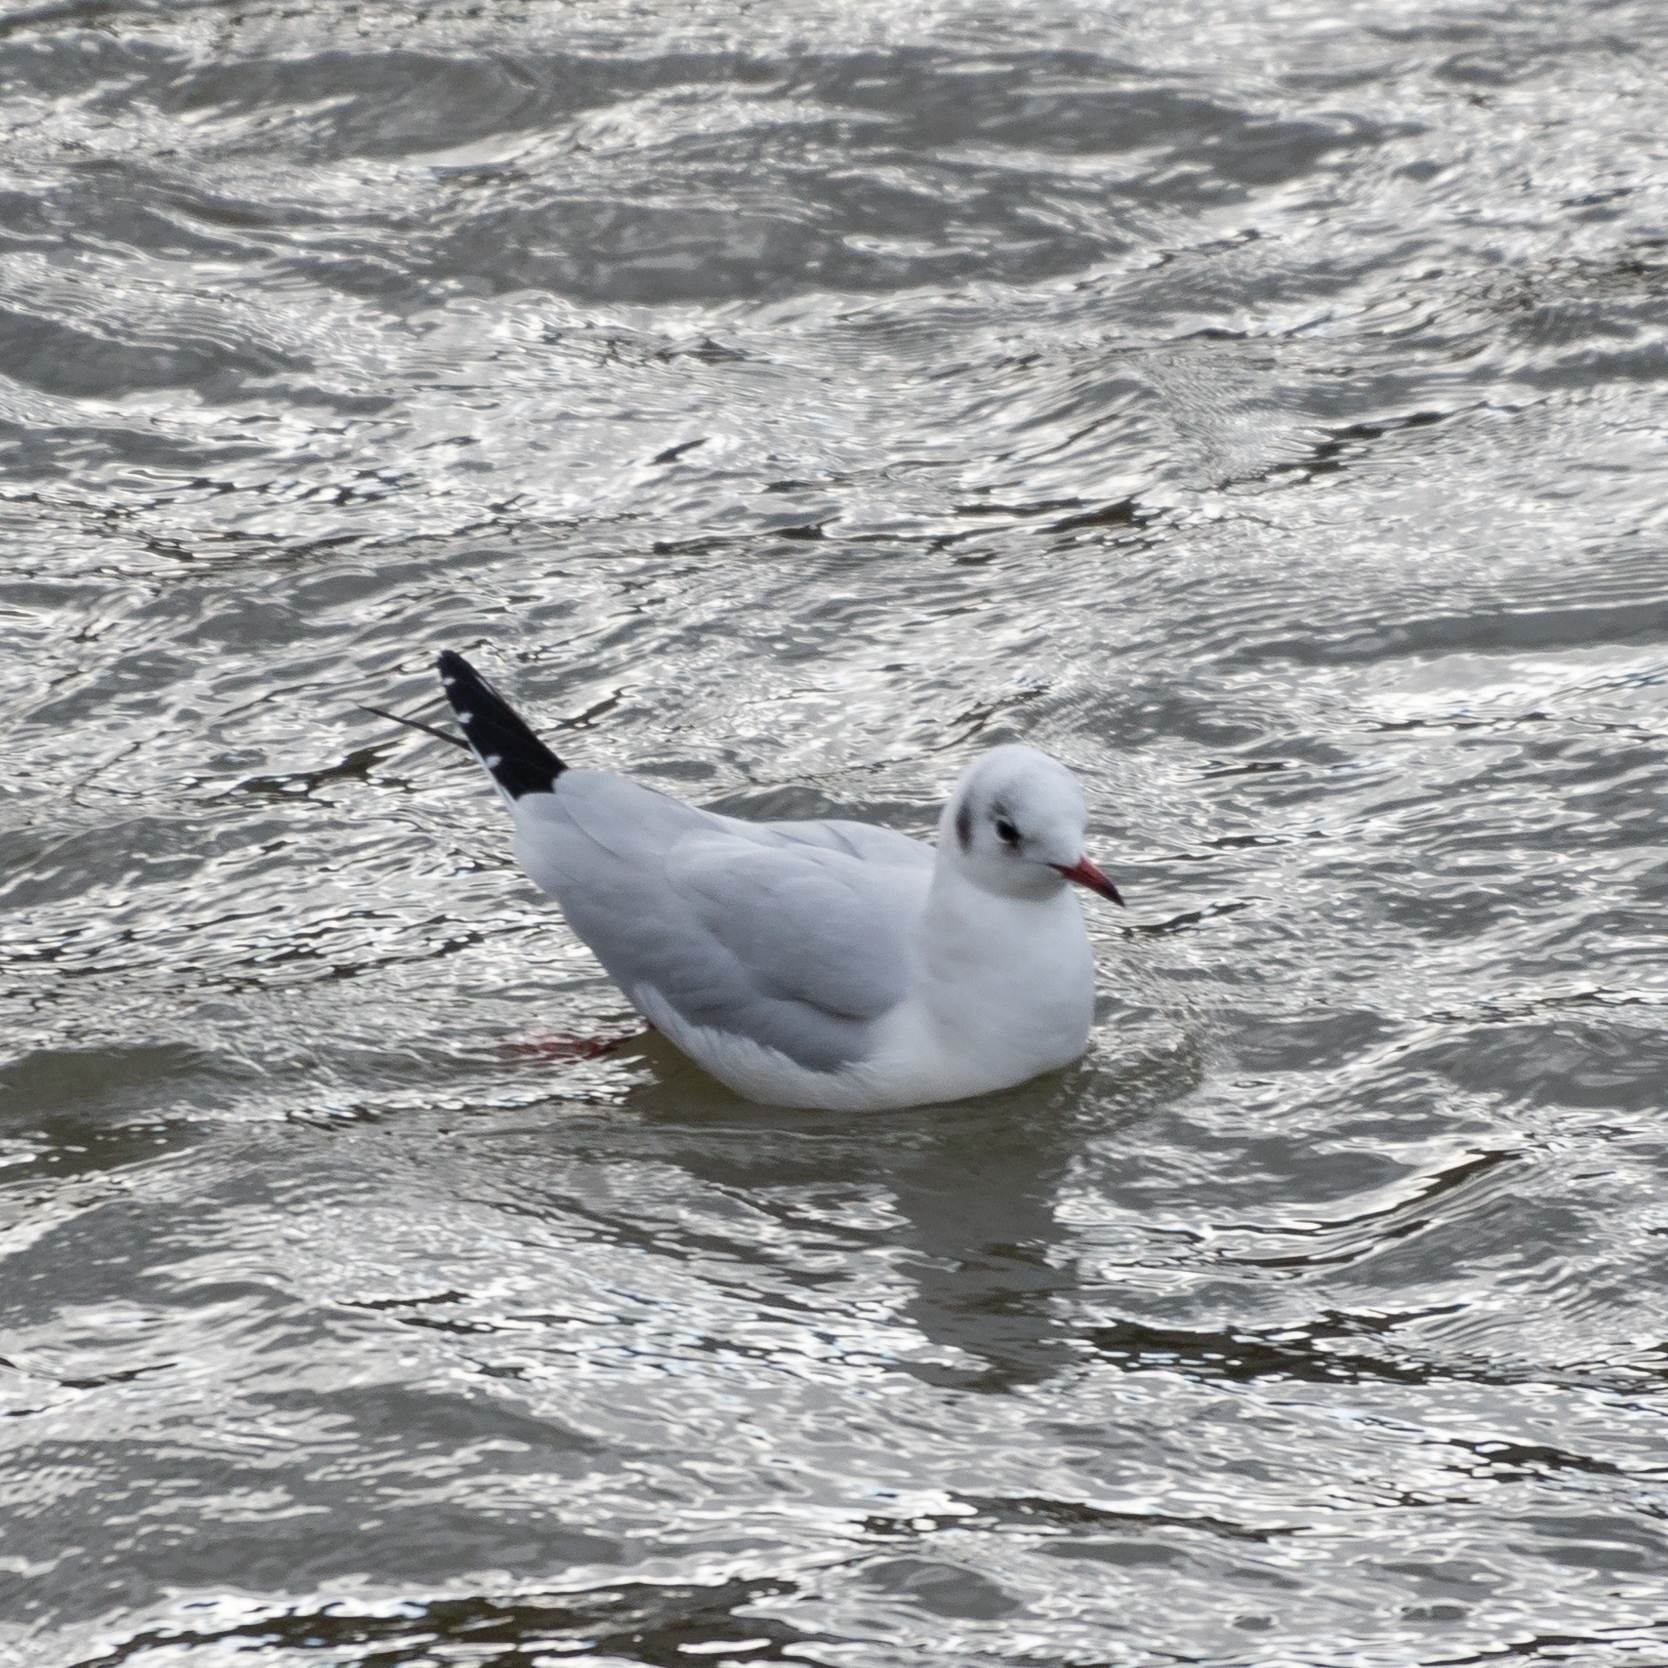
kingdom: Animalia
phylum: Chordata
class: Aves
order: Charadriiformes
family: Laridae
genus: Chroicocephalus
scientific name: Chroicocephalus ridibundus
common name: Black-headed gull
